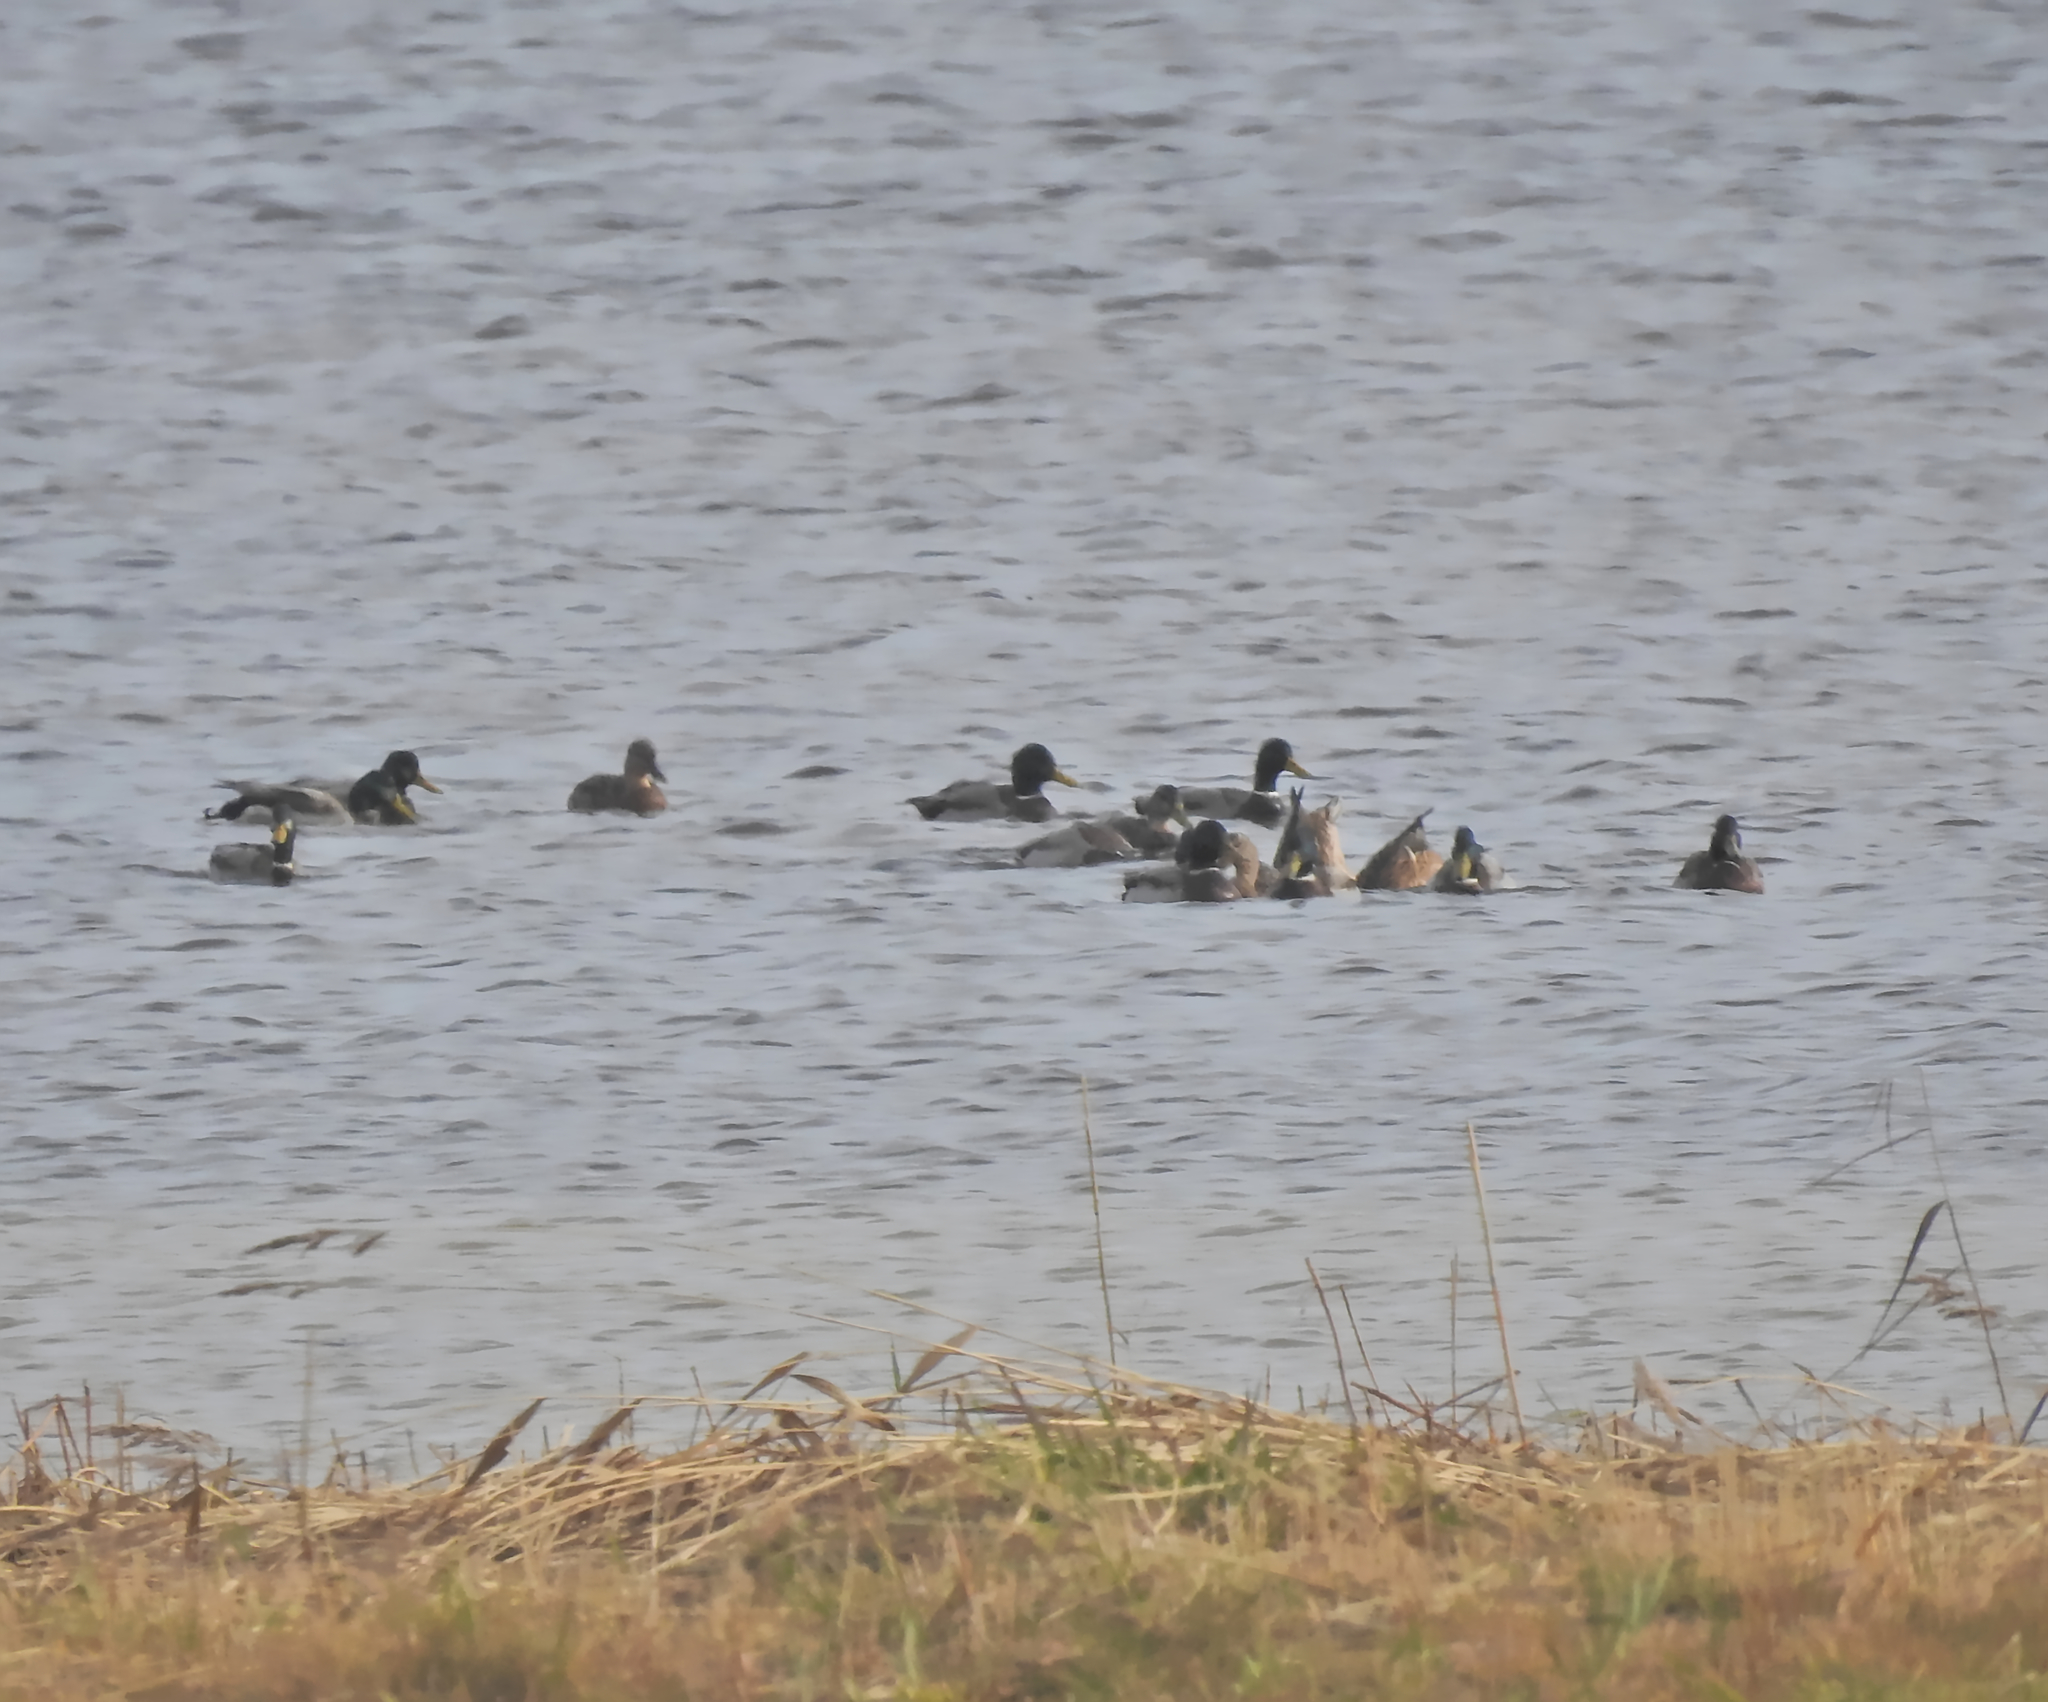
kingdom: Animalia
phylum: Chordata
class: Aves
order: Anseriformes
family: Anatidae
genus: Anas
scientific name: Anas platyrhynchos
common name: Mallard
